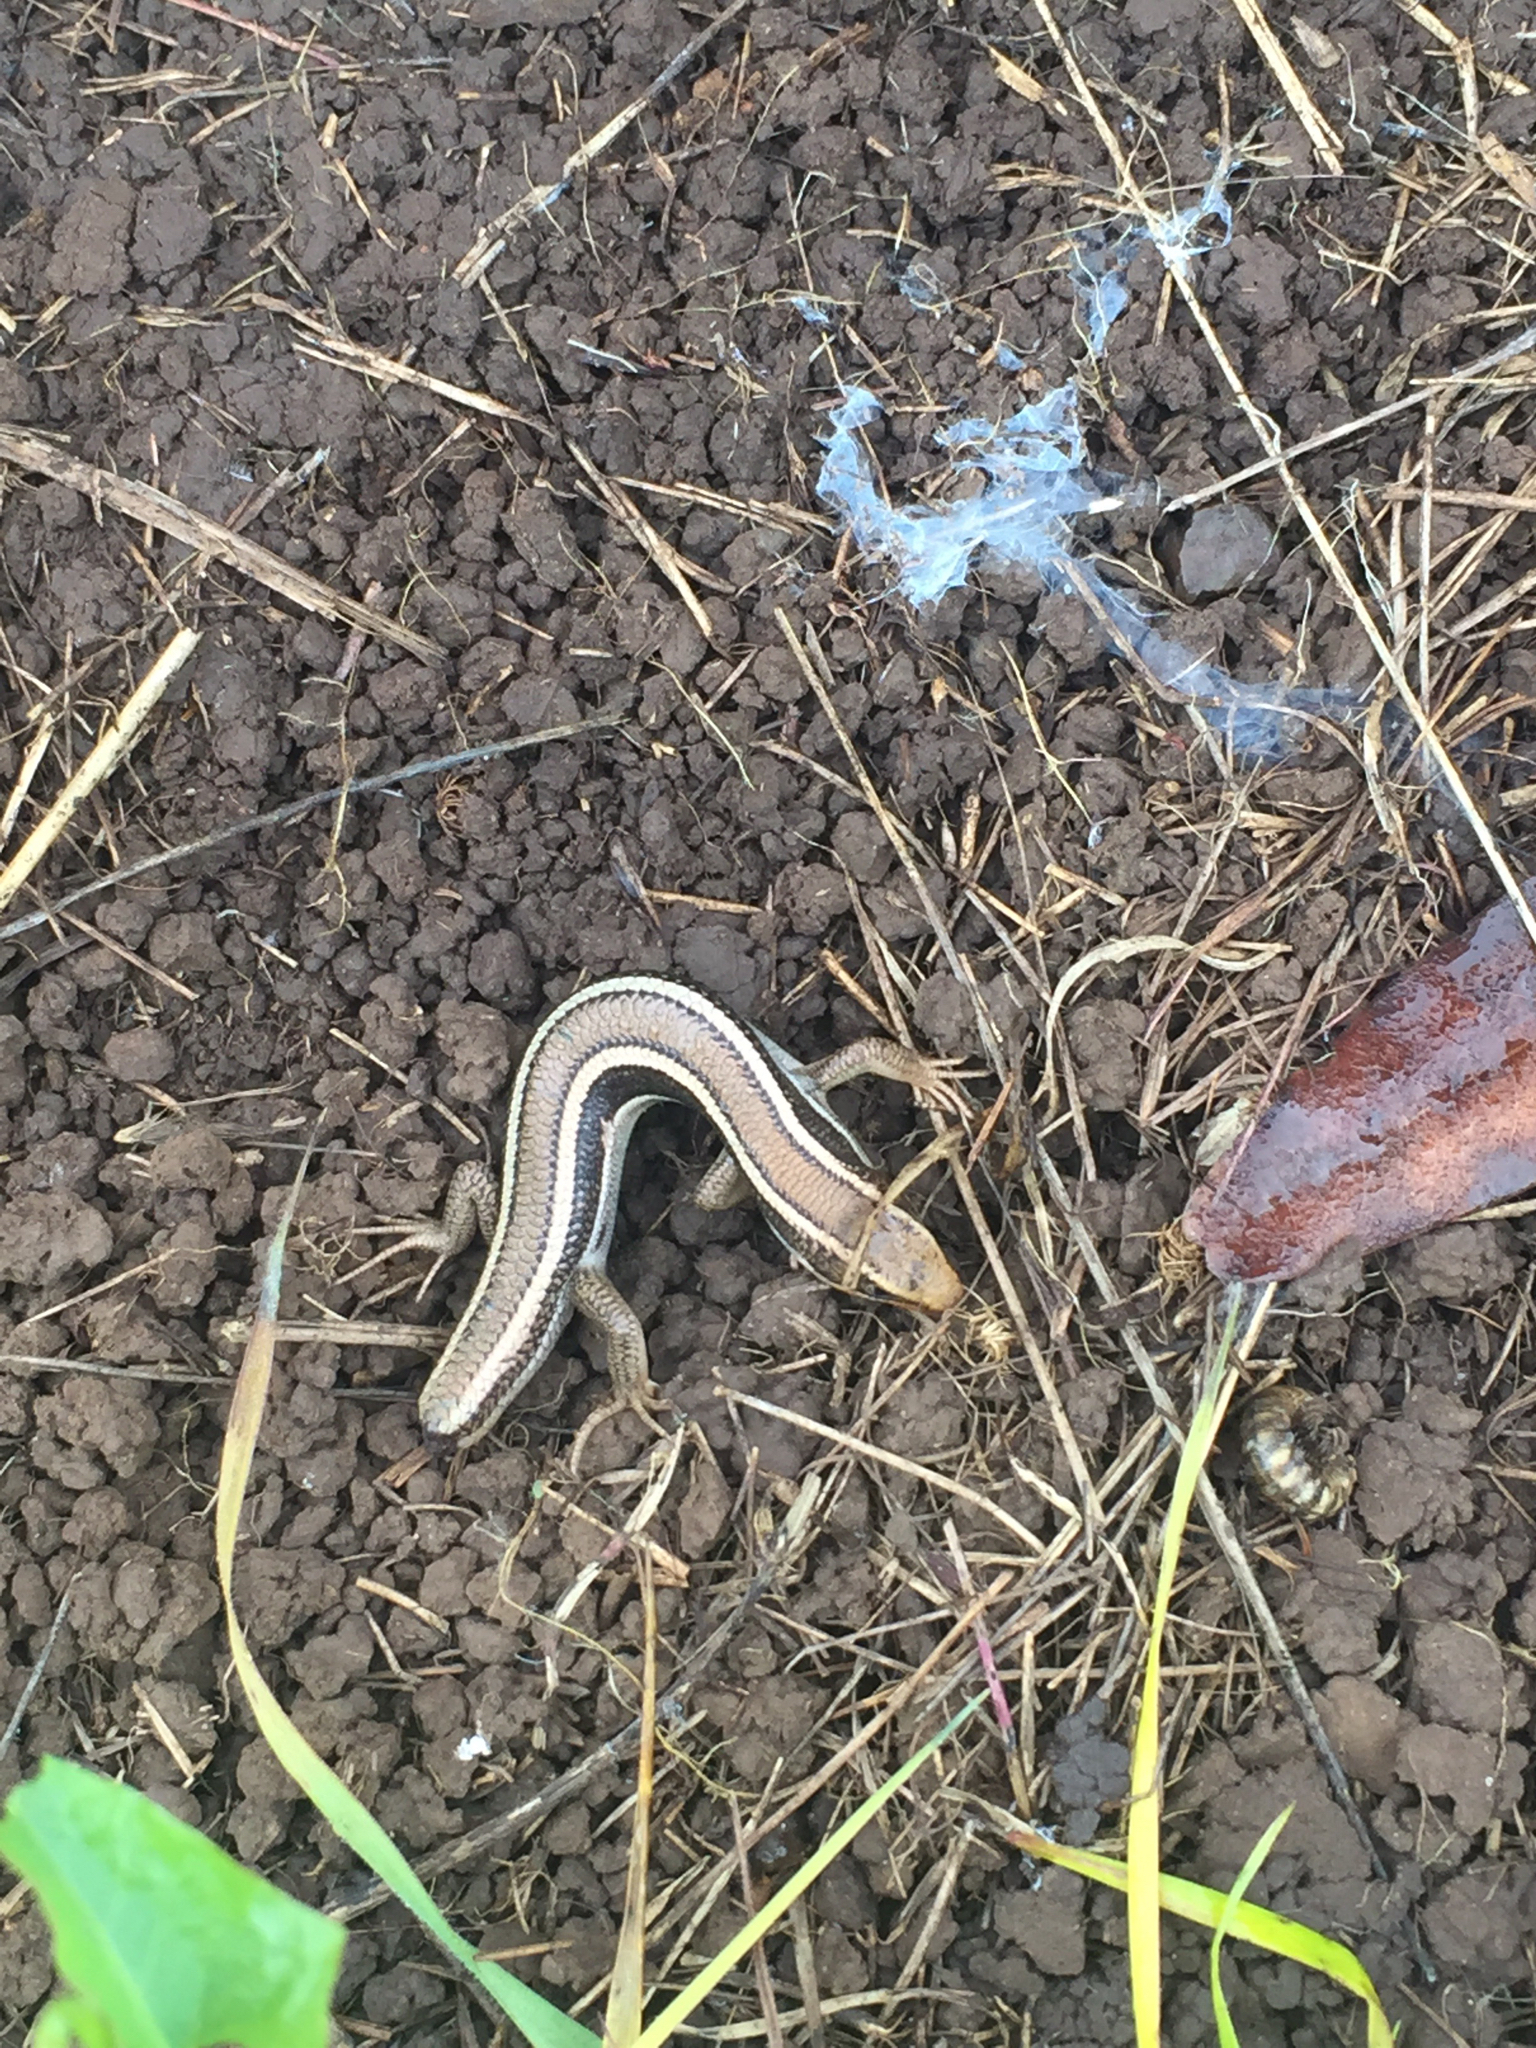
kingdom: Animalia
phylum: Chordata
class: Squamata
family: Scincidae
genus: Plestiodon
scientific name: Plestiodon skiltonianus
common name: Coronado island skink [interparietalis]
